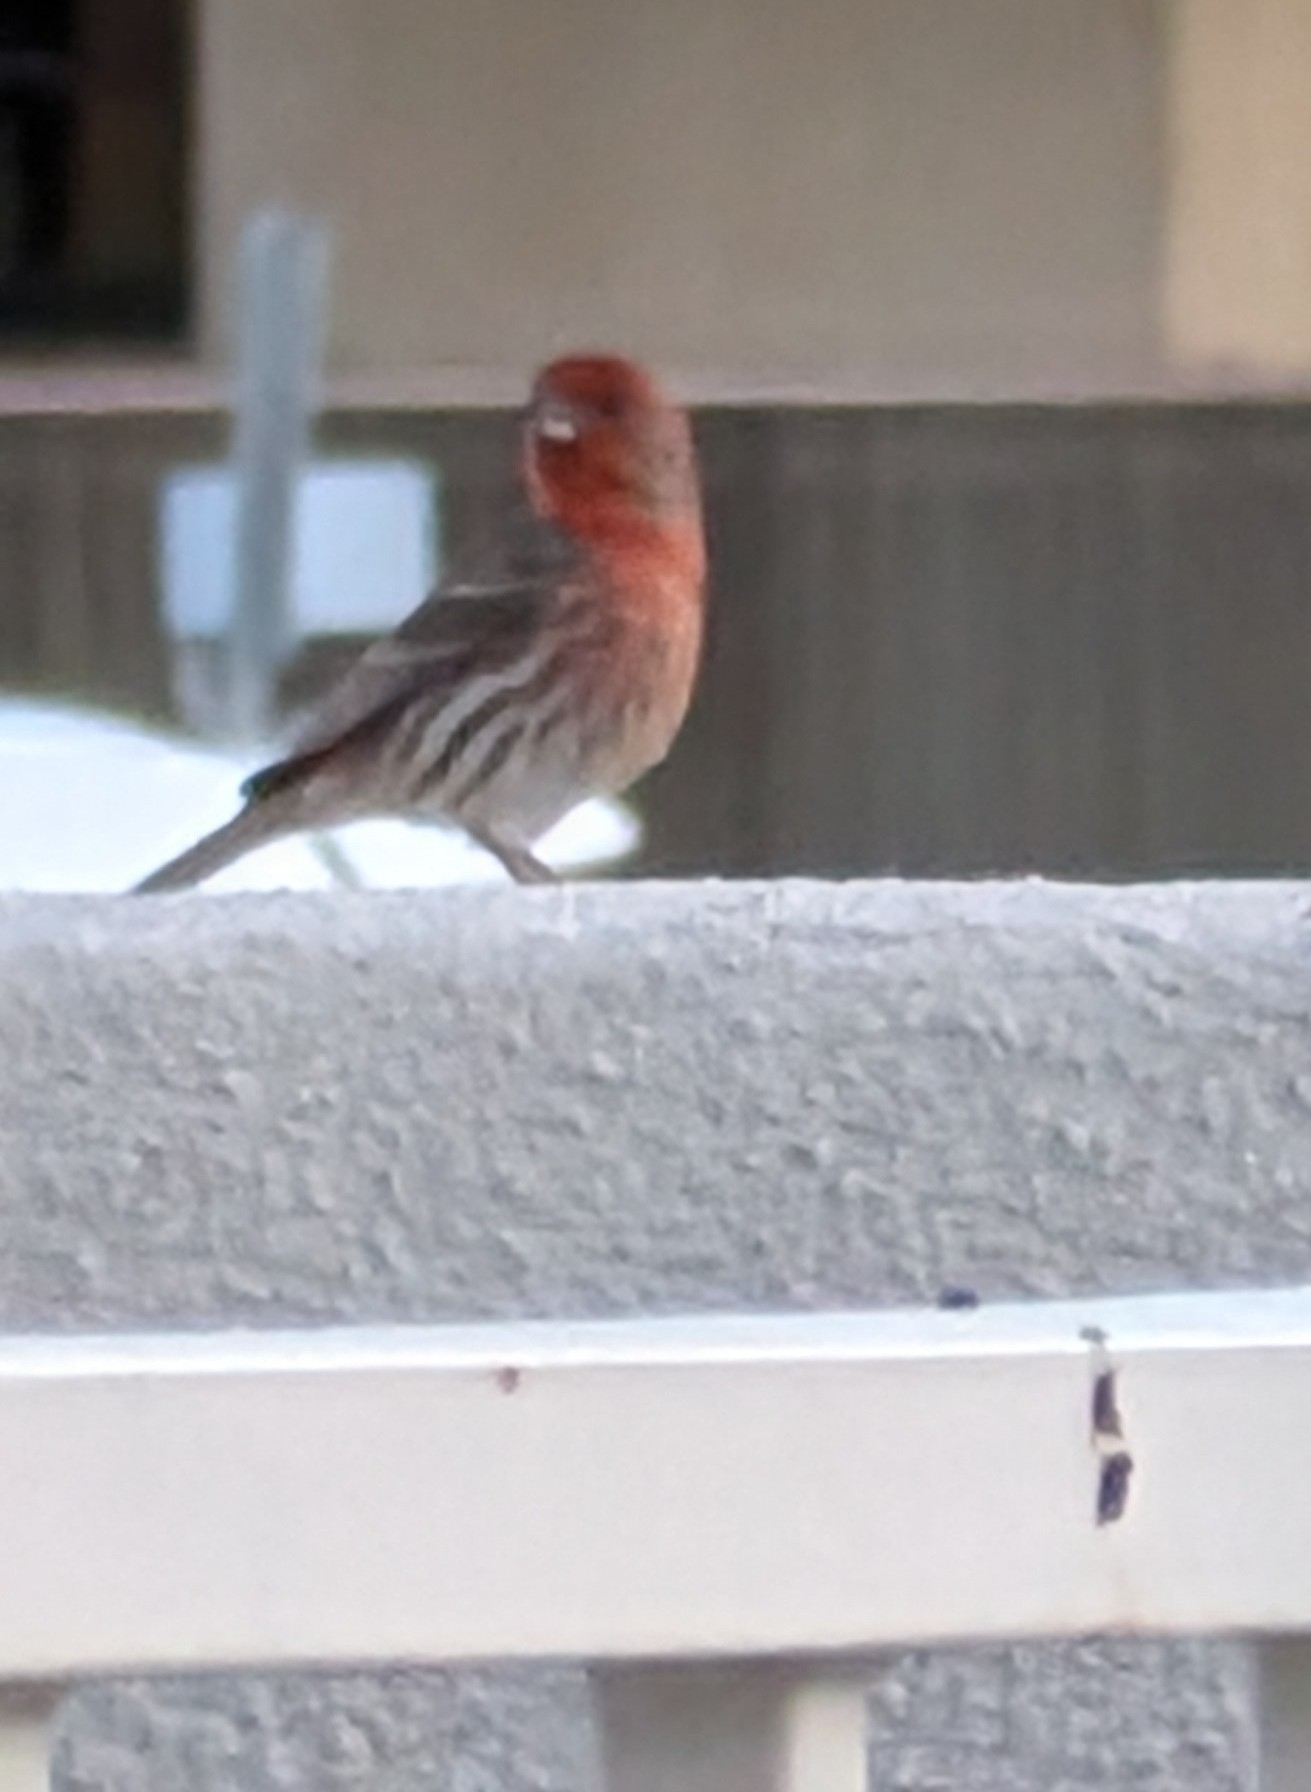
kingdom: Animalia
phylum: Chordata
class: Aves
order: Passeriformes
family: Fringillidae
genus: Haemorhous
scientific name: Haemorhous mexicanus
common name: House finch
